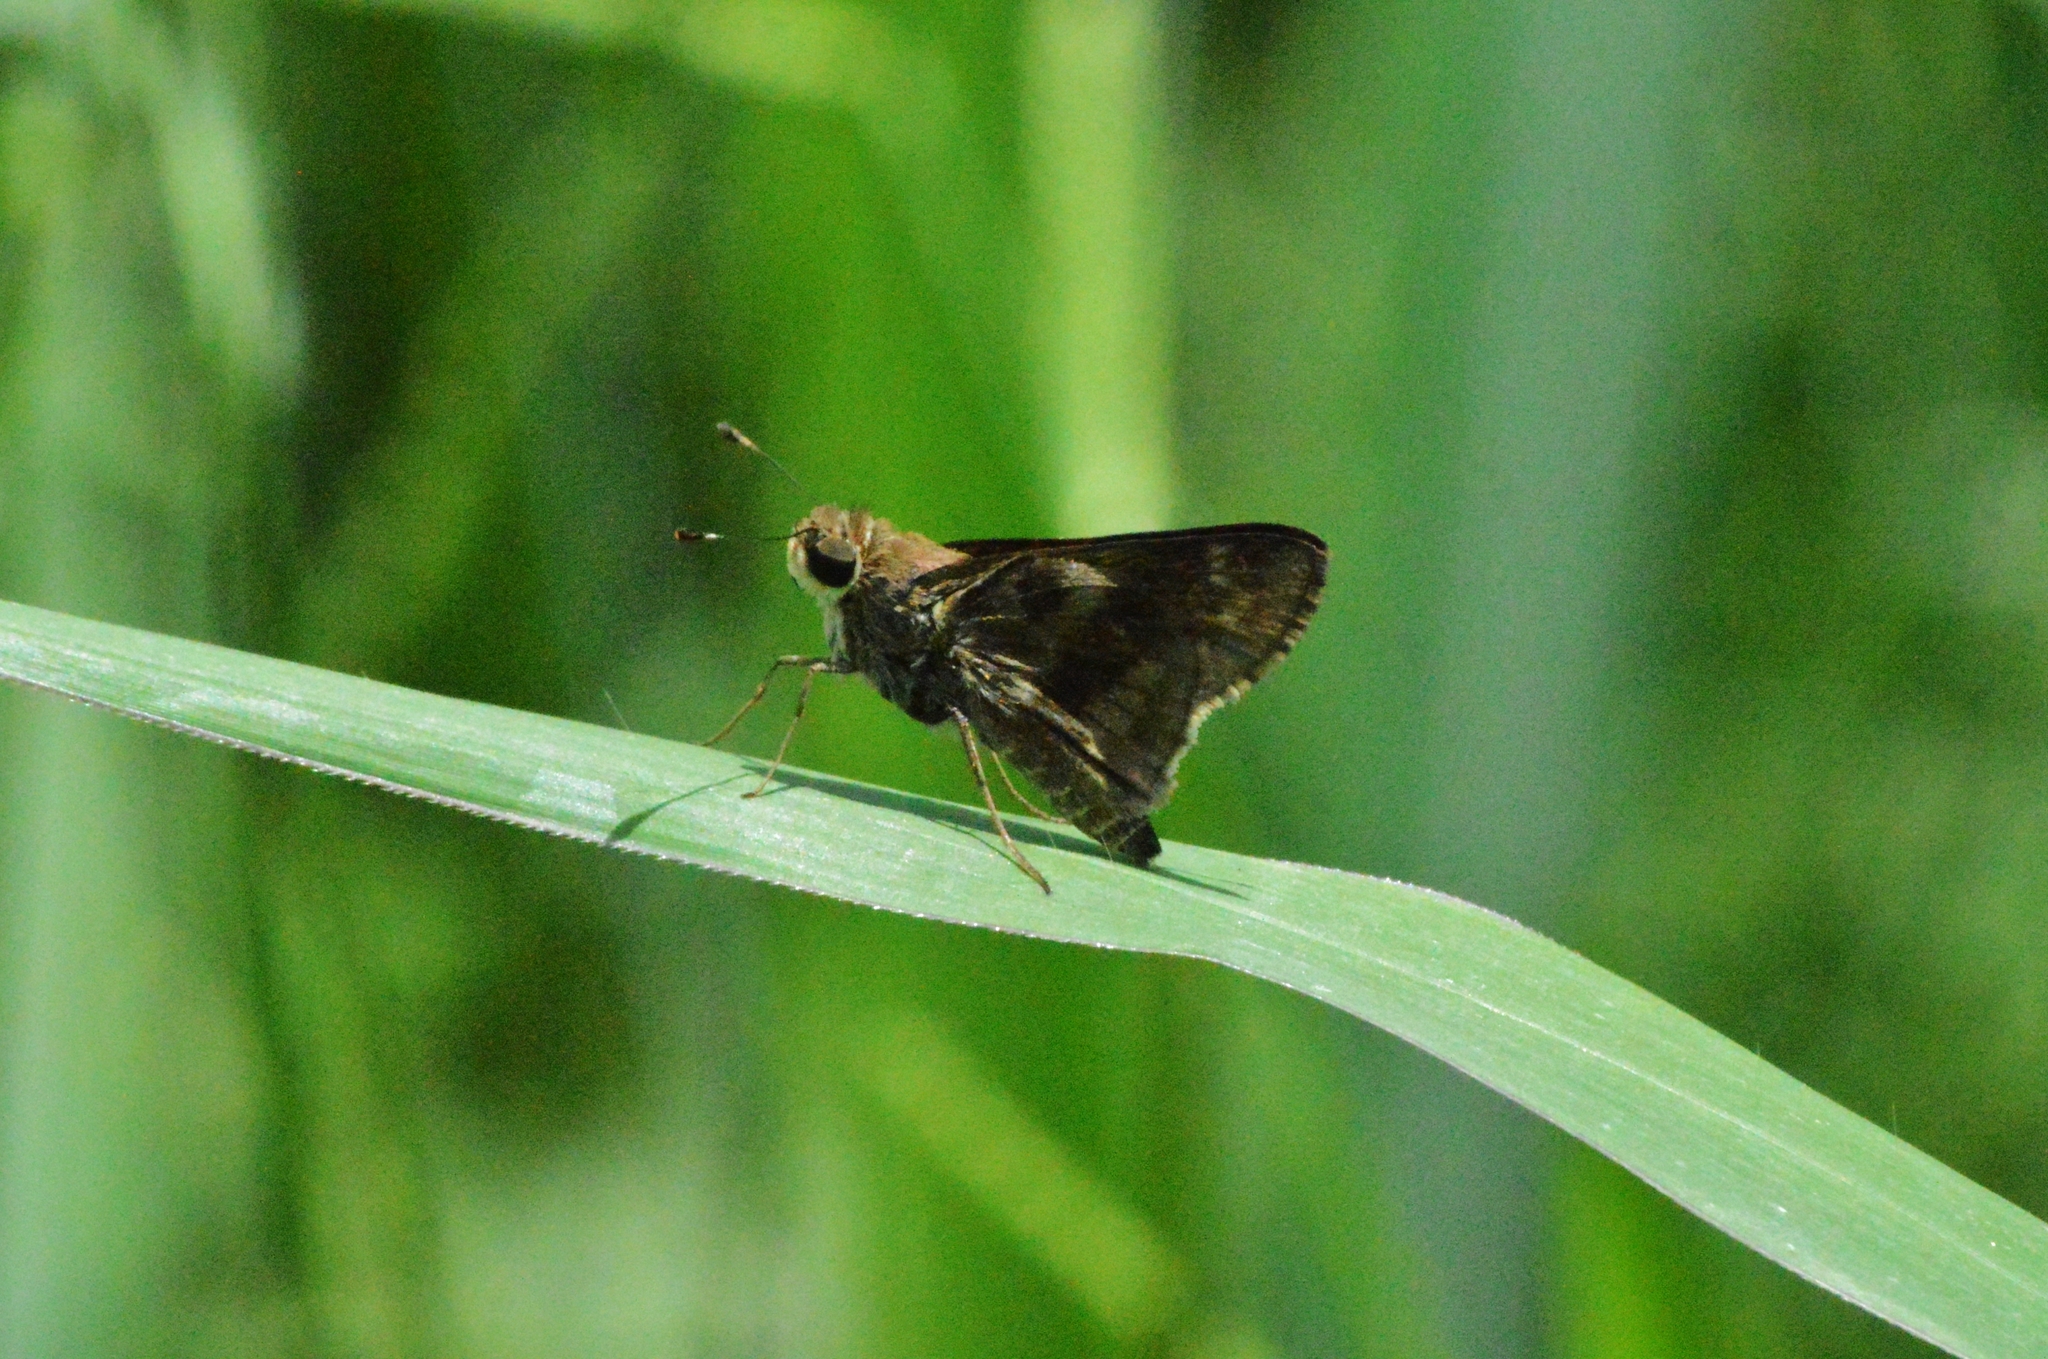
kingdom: Animalia
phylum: Arthropoda
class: Insecta
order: Lepidoptera
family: Hesperiidae
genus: Pompeius
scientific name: Pompeius pompeius
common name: Pompeius skipper
